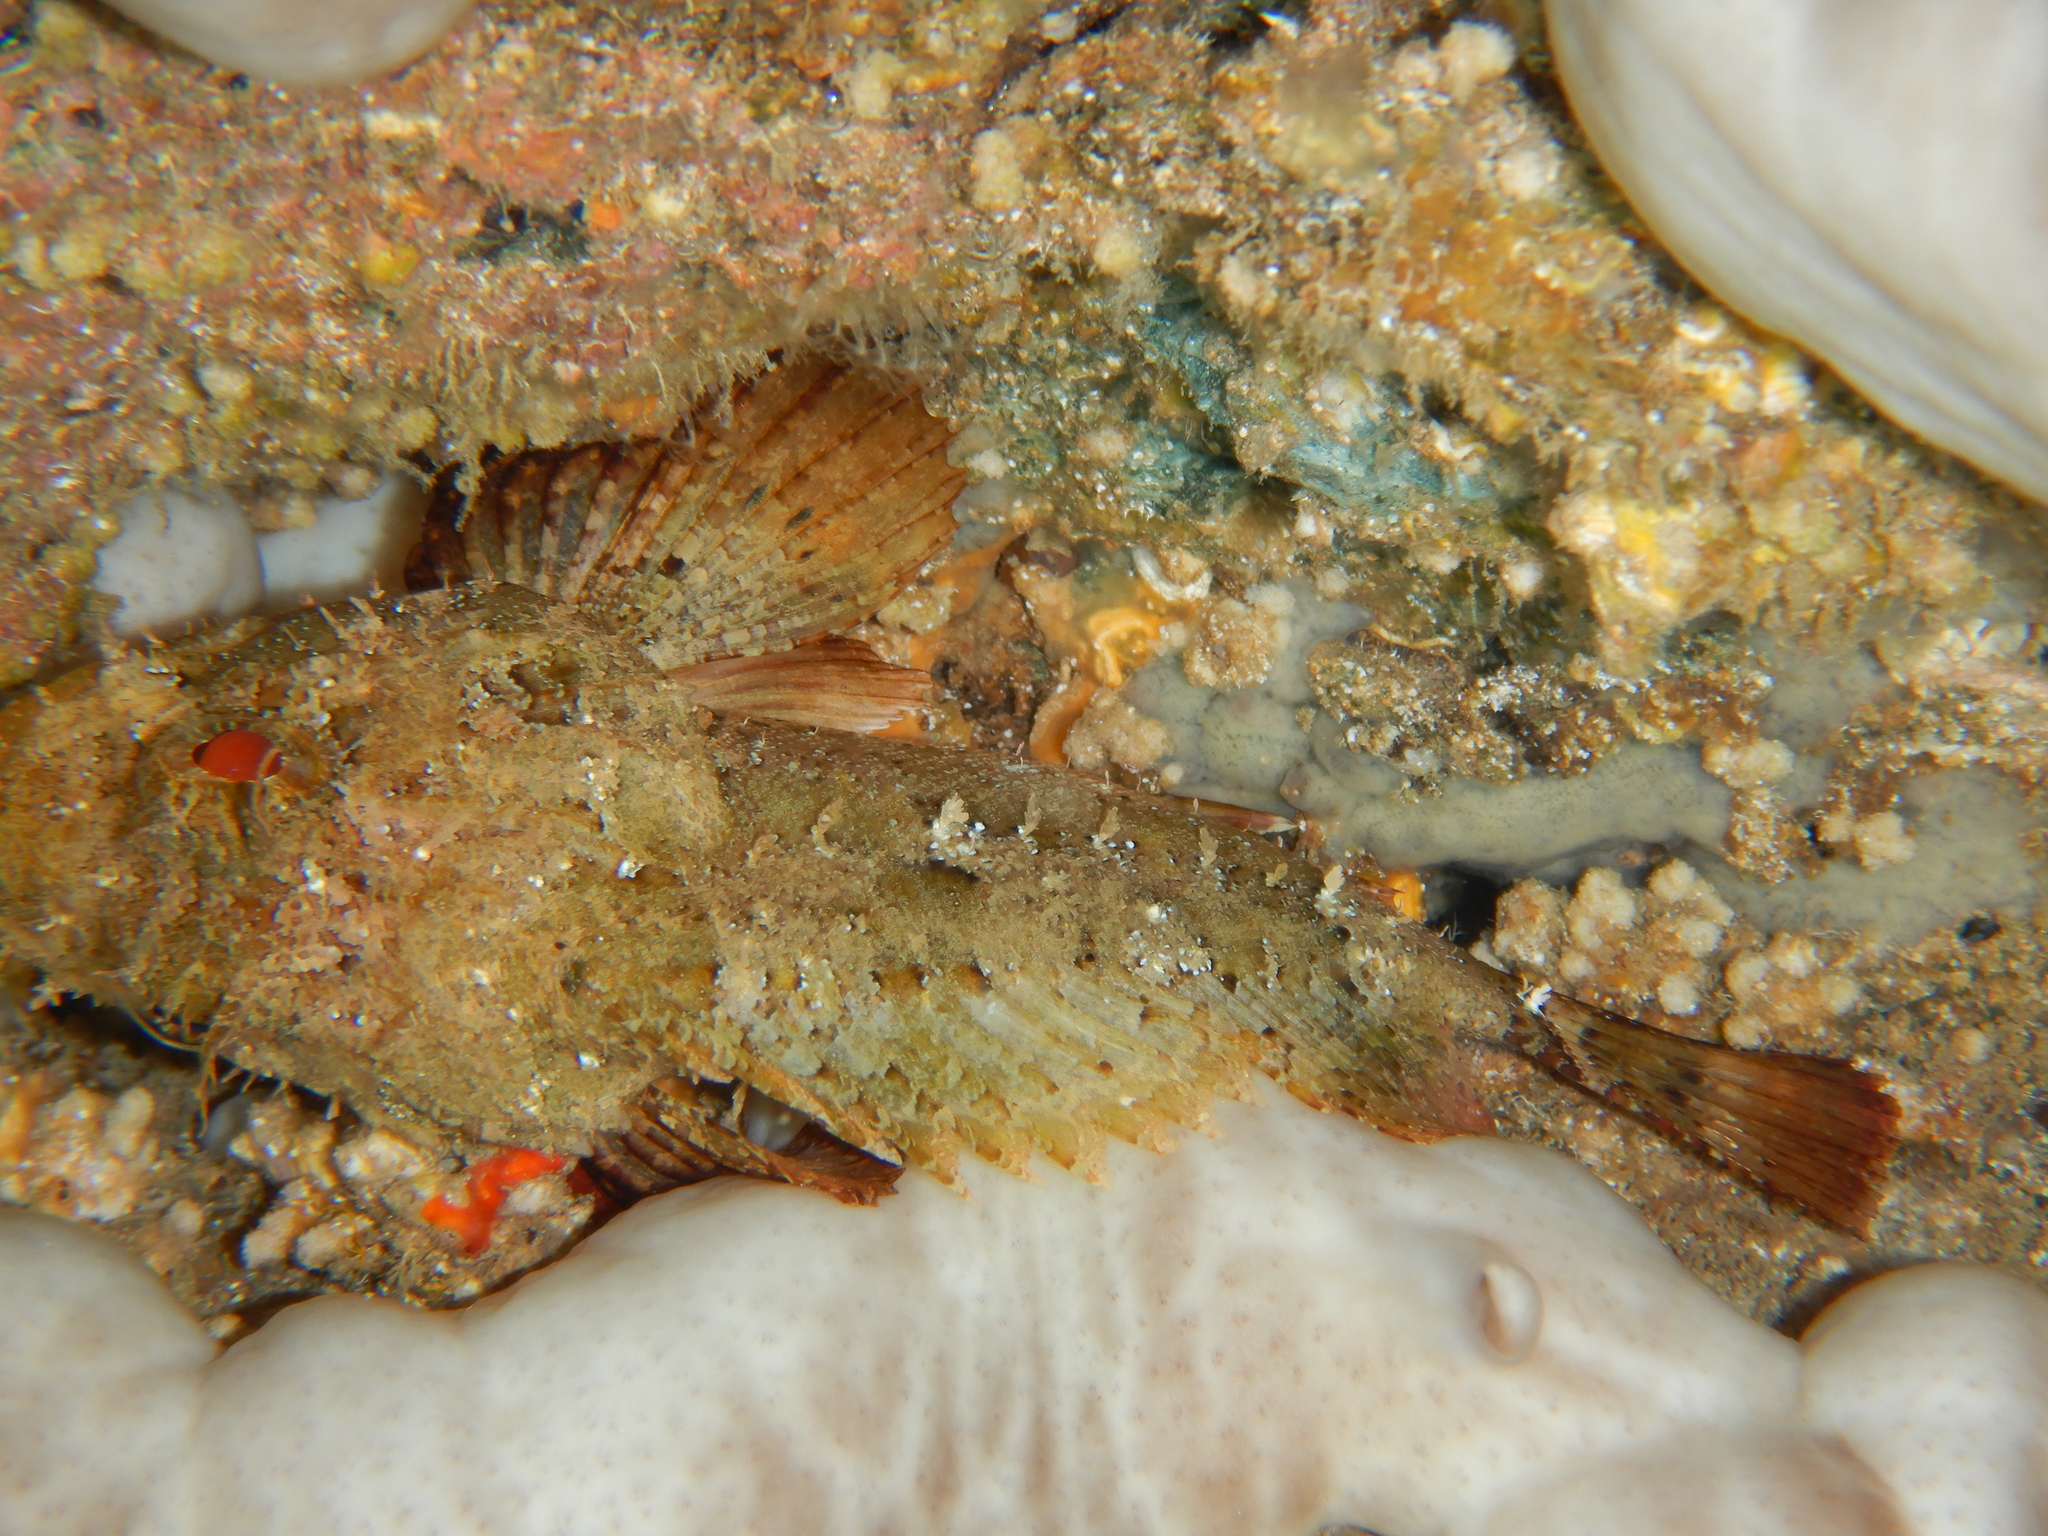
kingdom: Animalia
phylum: Chordata
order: Scorpaeniformes
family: Scorpaenidae
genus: Scorpaena
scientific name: Scorpaena porcus
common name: Black scorpionfish
